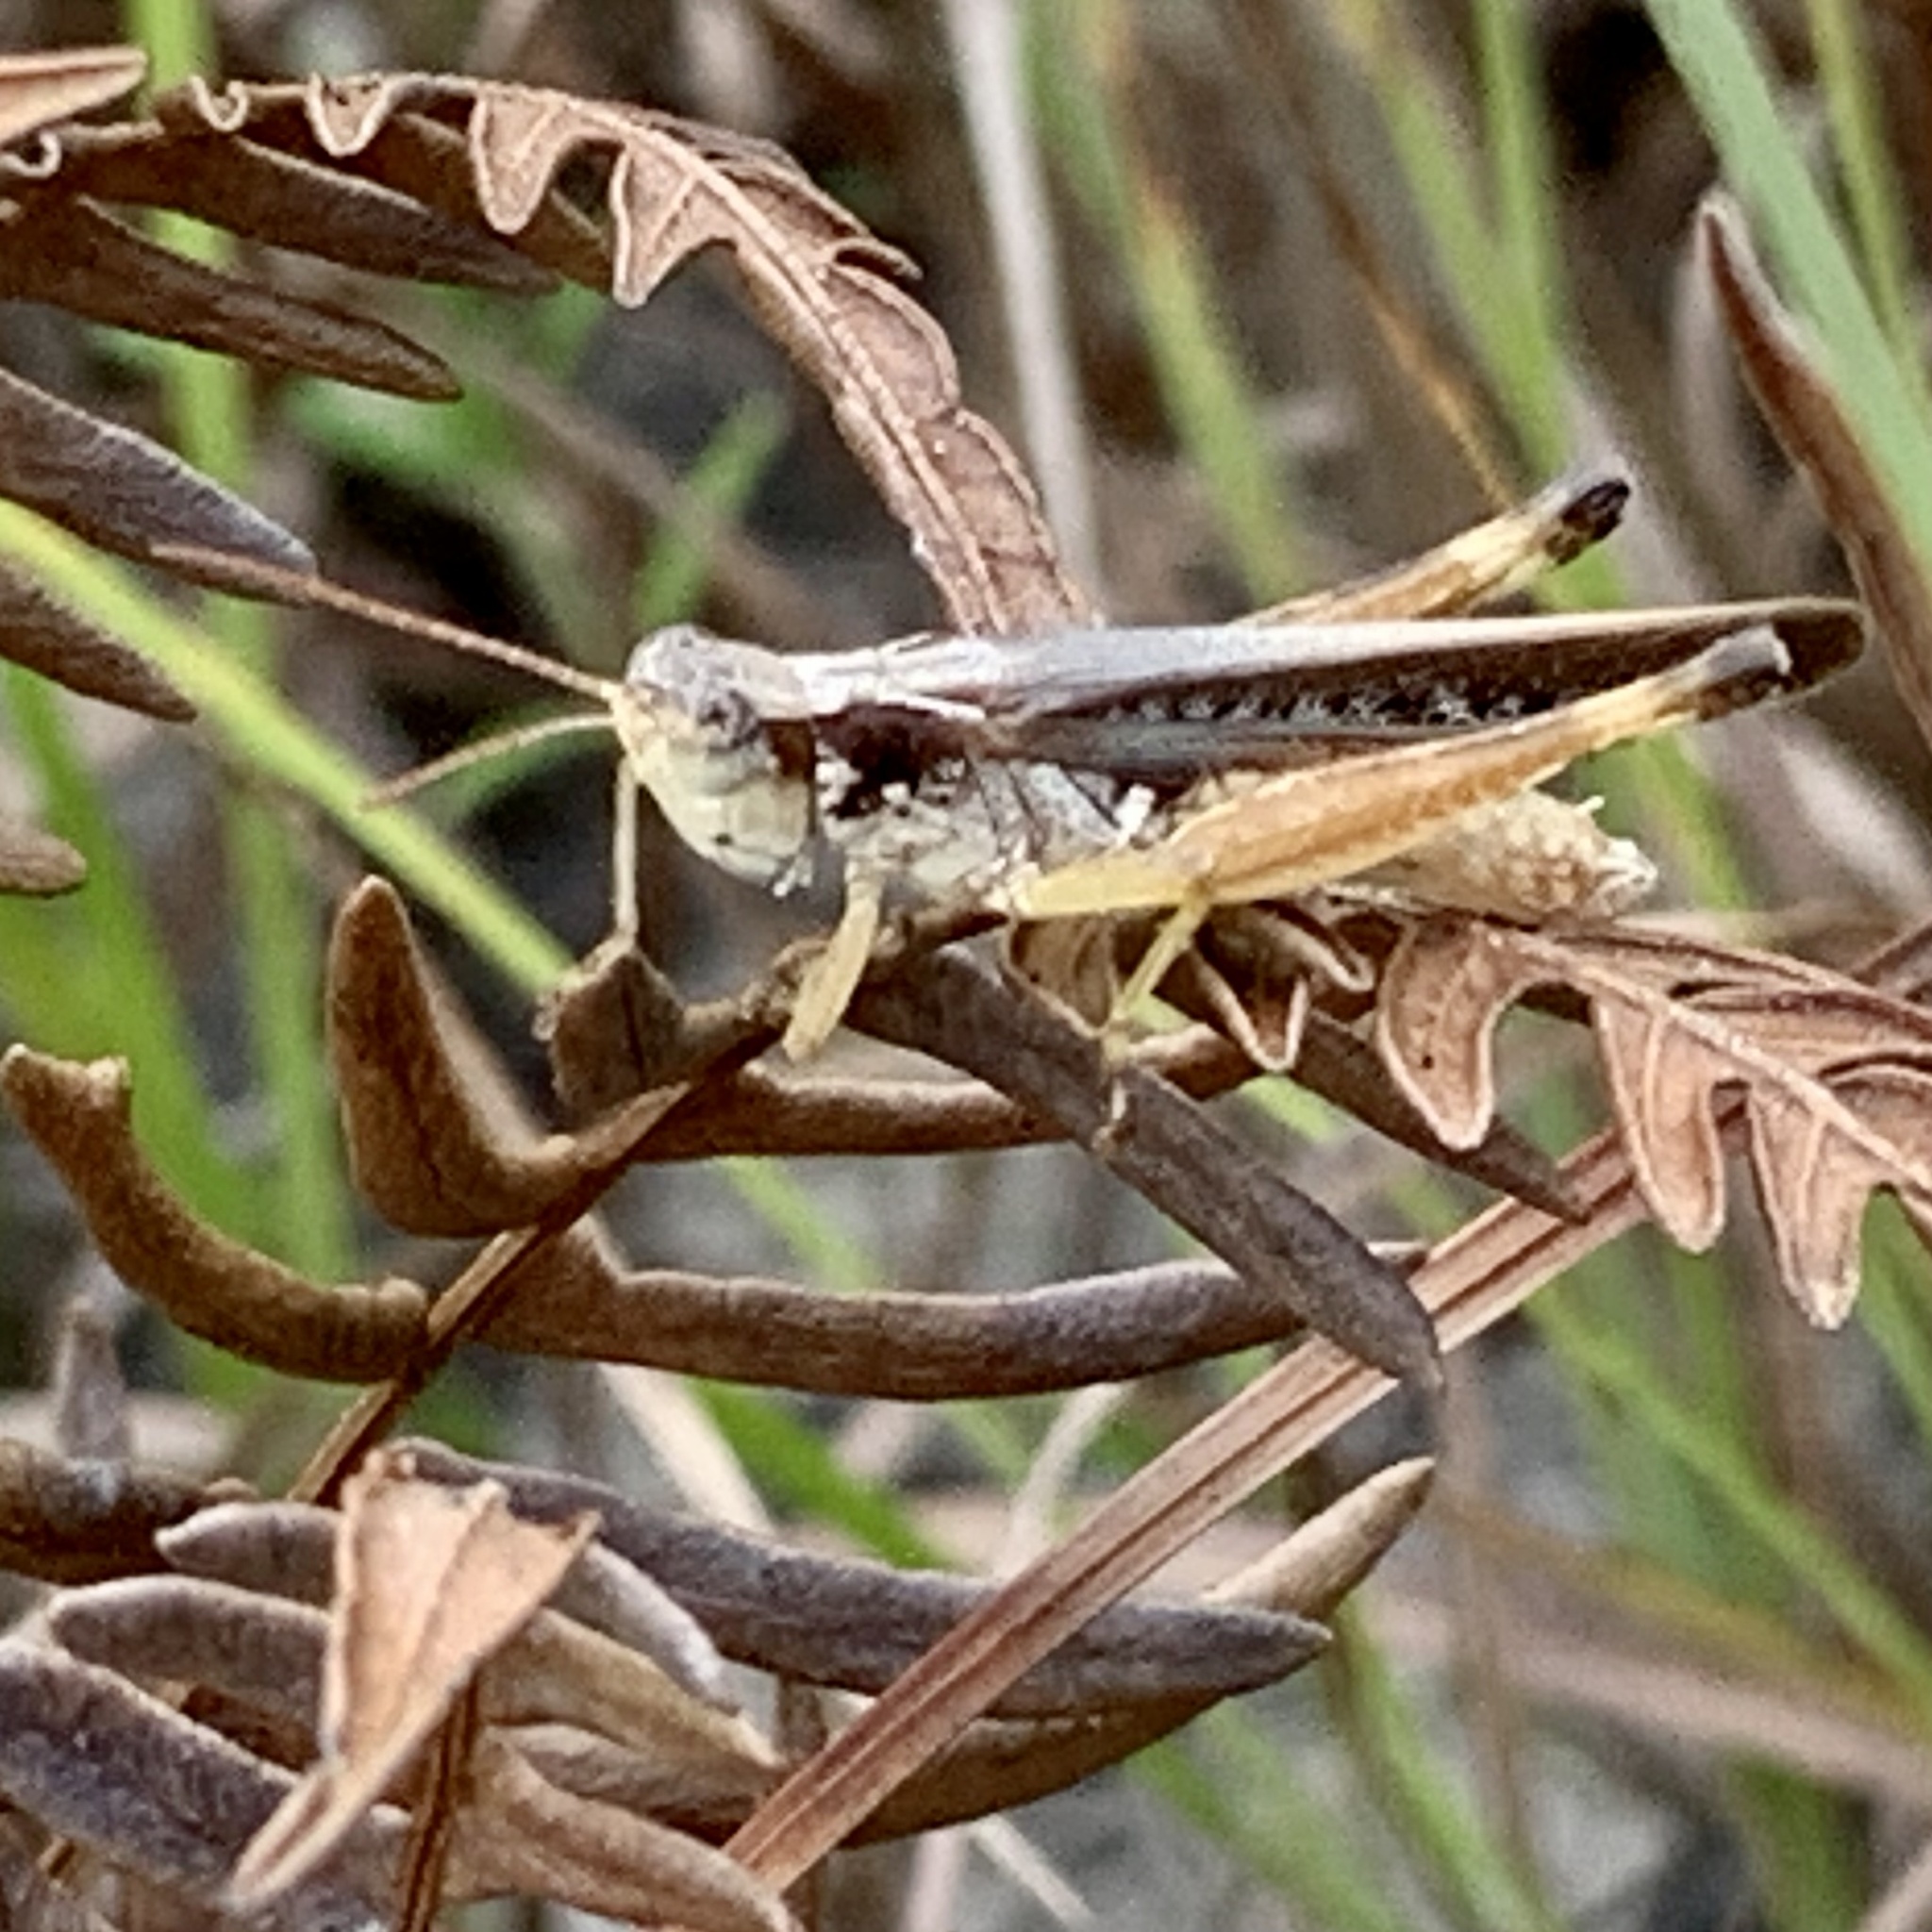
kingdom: Animalia
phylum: Arthropoda
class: Insecta
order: Orthoptera
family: Acrididae
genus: Orphulella
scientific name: Orphulella pelidna
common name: Spotted-wing grasshopper
